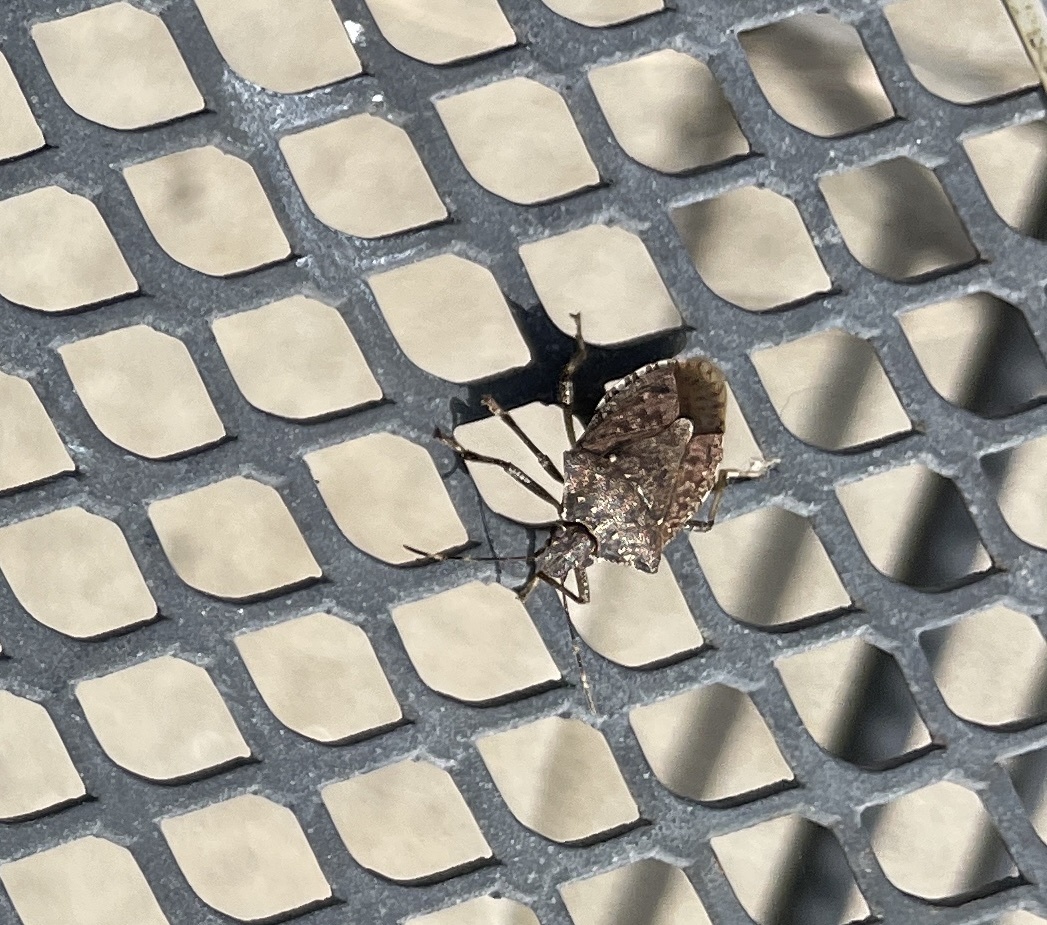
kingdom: Animalia
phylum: Arthropoda
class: Insecta
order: Hemiptera
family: Pentatomidae
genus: Halyomorpha
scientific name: Halyomorpha halys
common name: Brown marmorated stink bug
